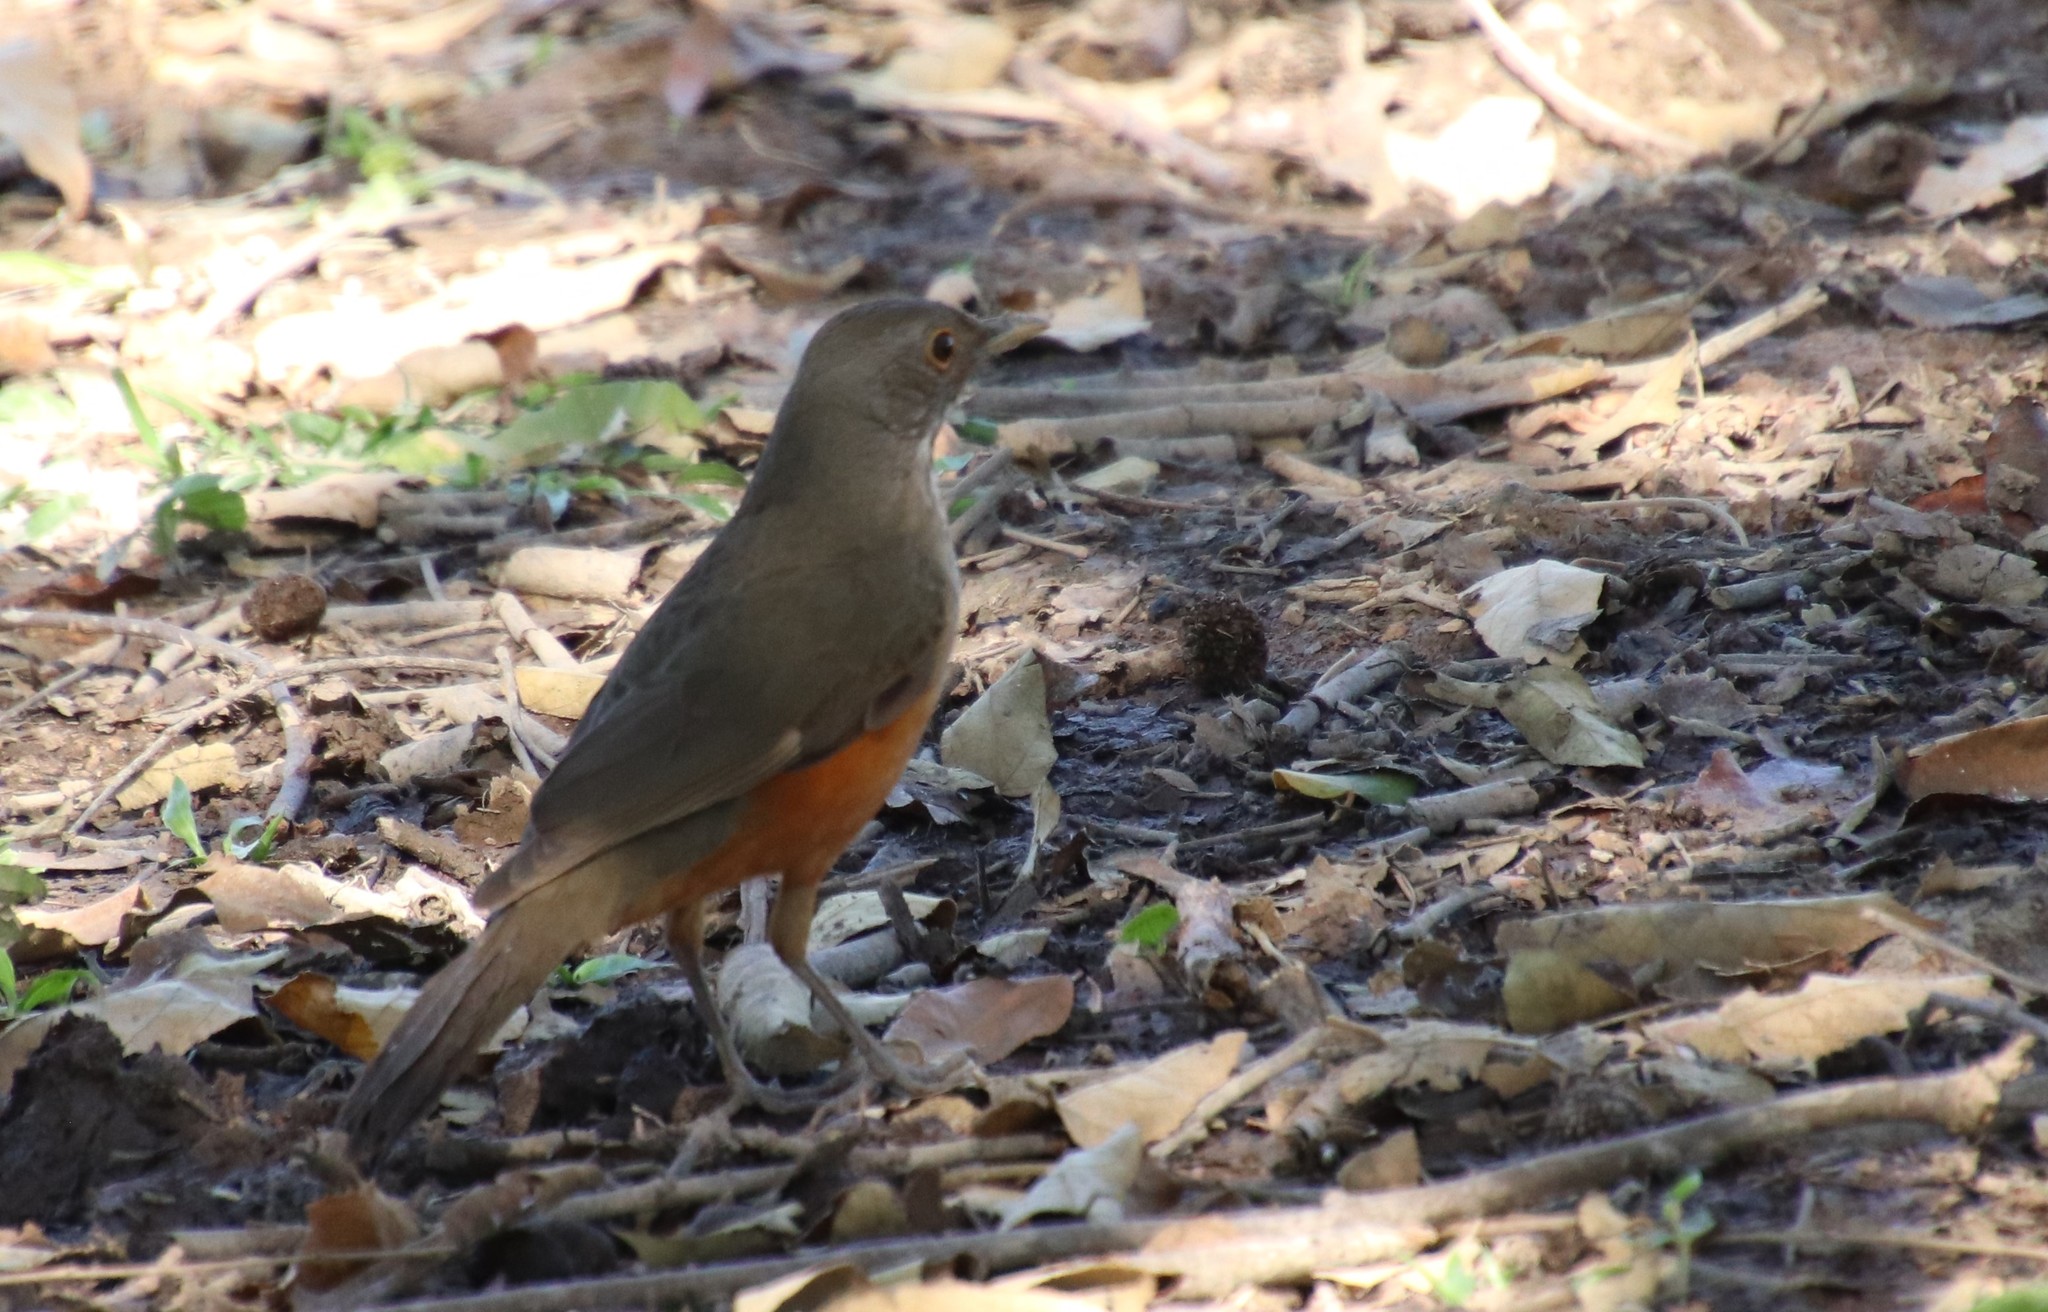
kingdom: Animalia
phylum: Chordata
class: Aves
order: Passeriformes
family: Turdidae
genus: Turdus
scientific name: Turdus rufiventris
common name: Rufous-bellied thrush
